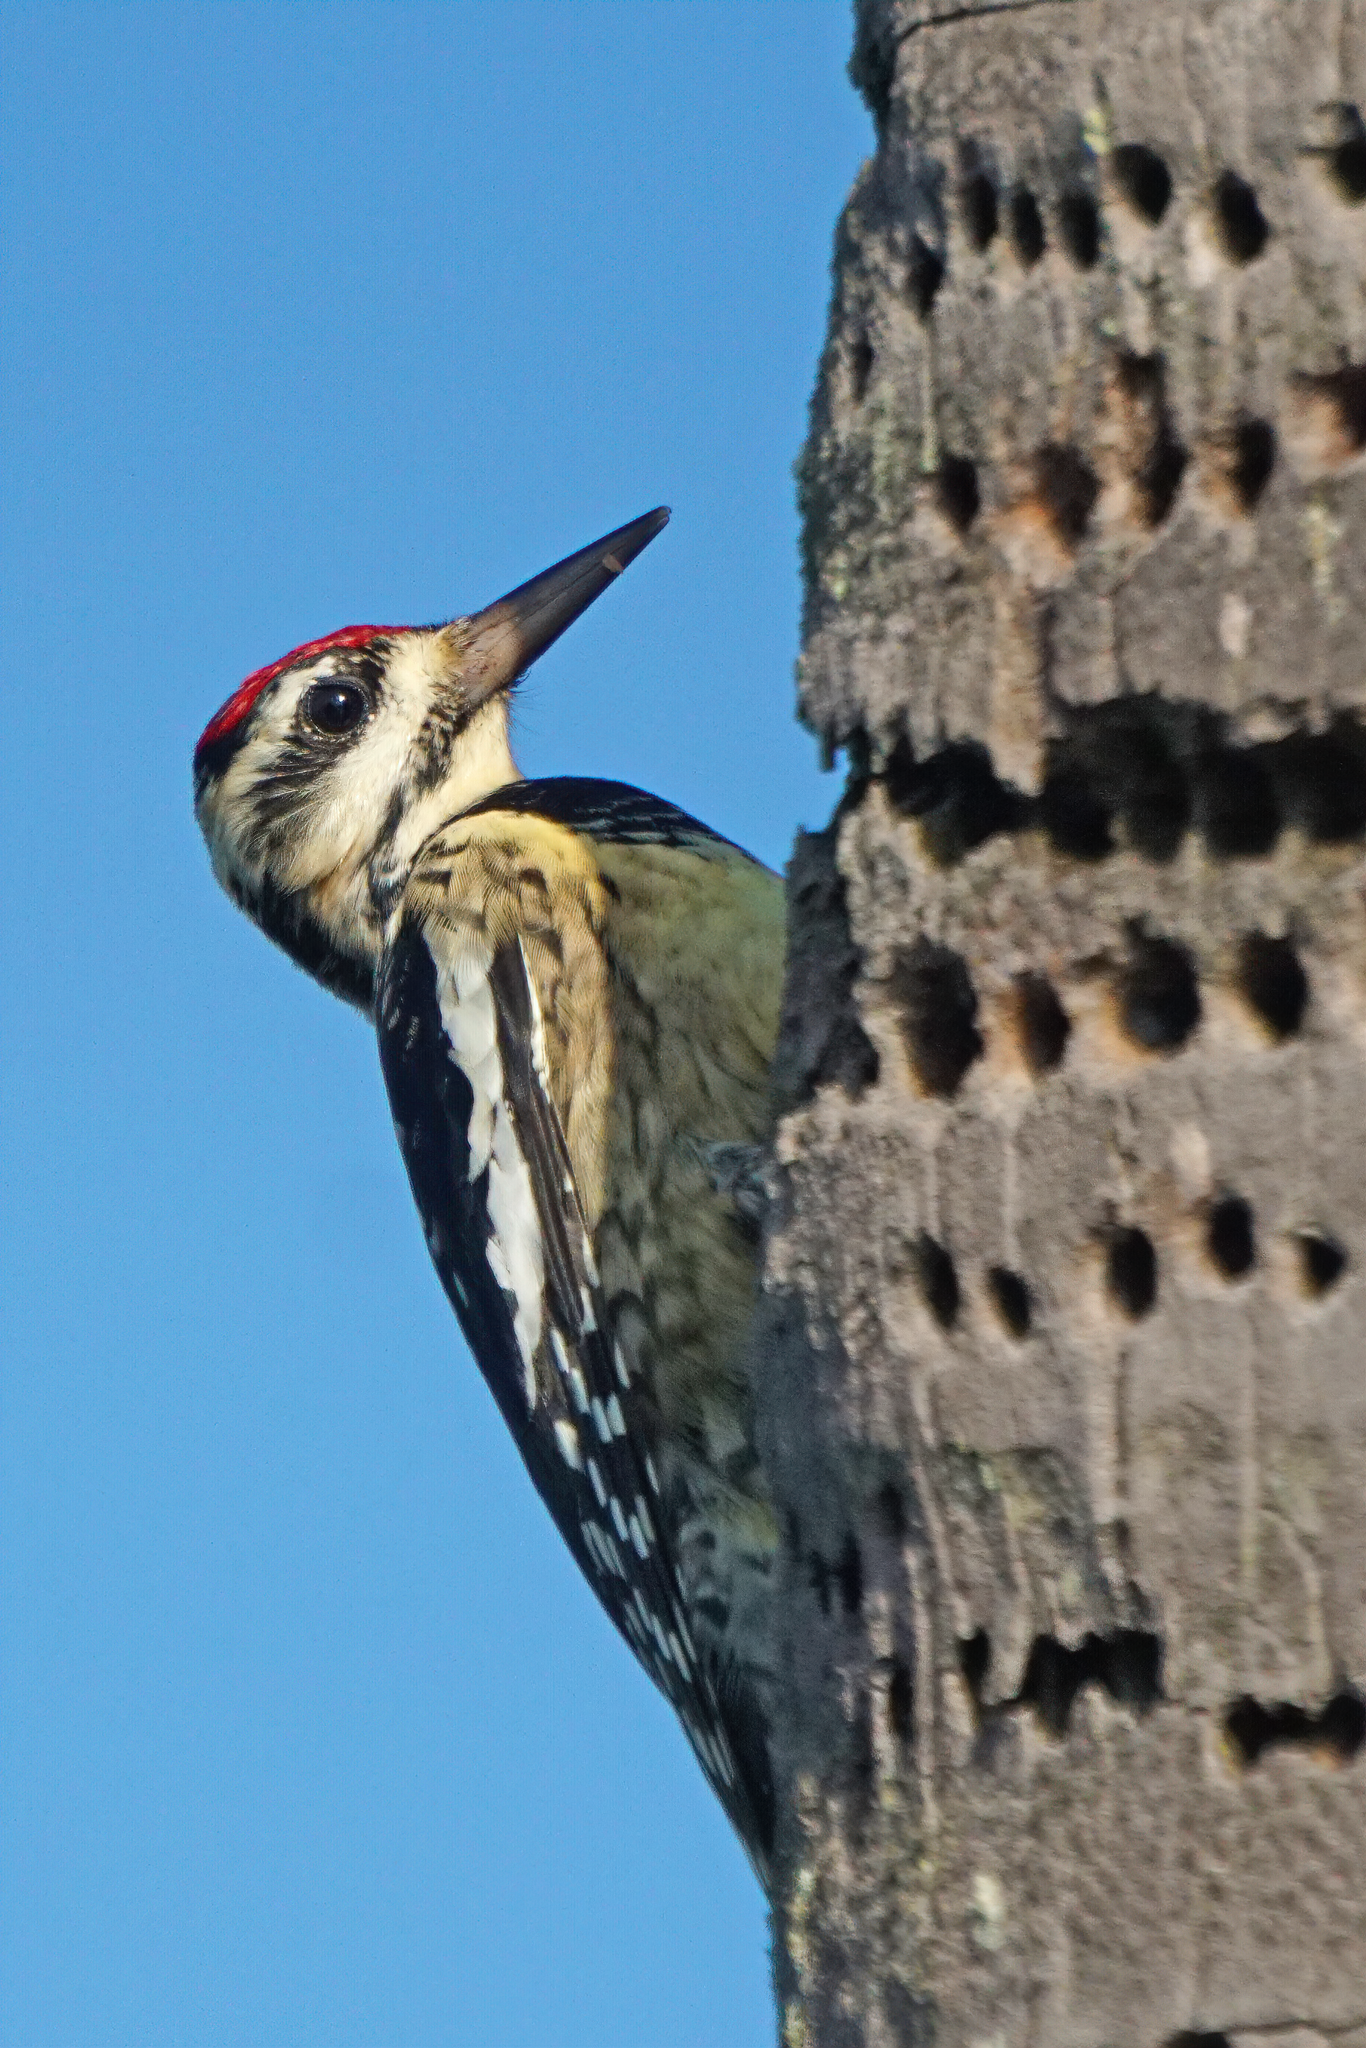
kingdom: Animalia
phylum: Chordata
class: Aves
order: Piciformes
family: Picidae
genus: Sphyrapicus
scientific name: Sphyrapicus varius
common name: Yellow-bellied sapsucker
